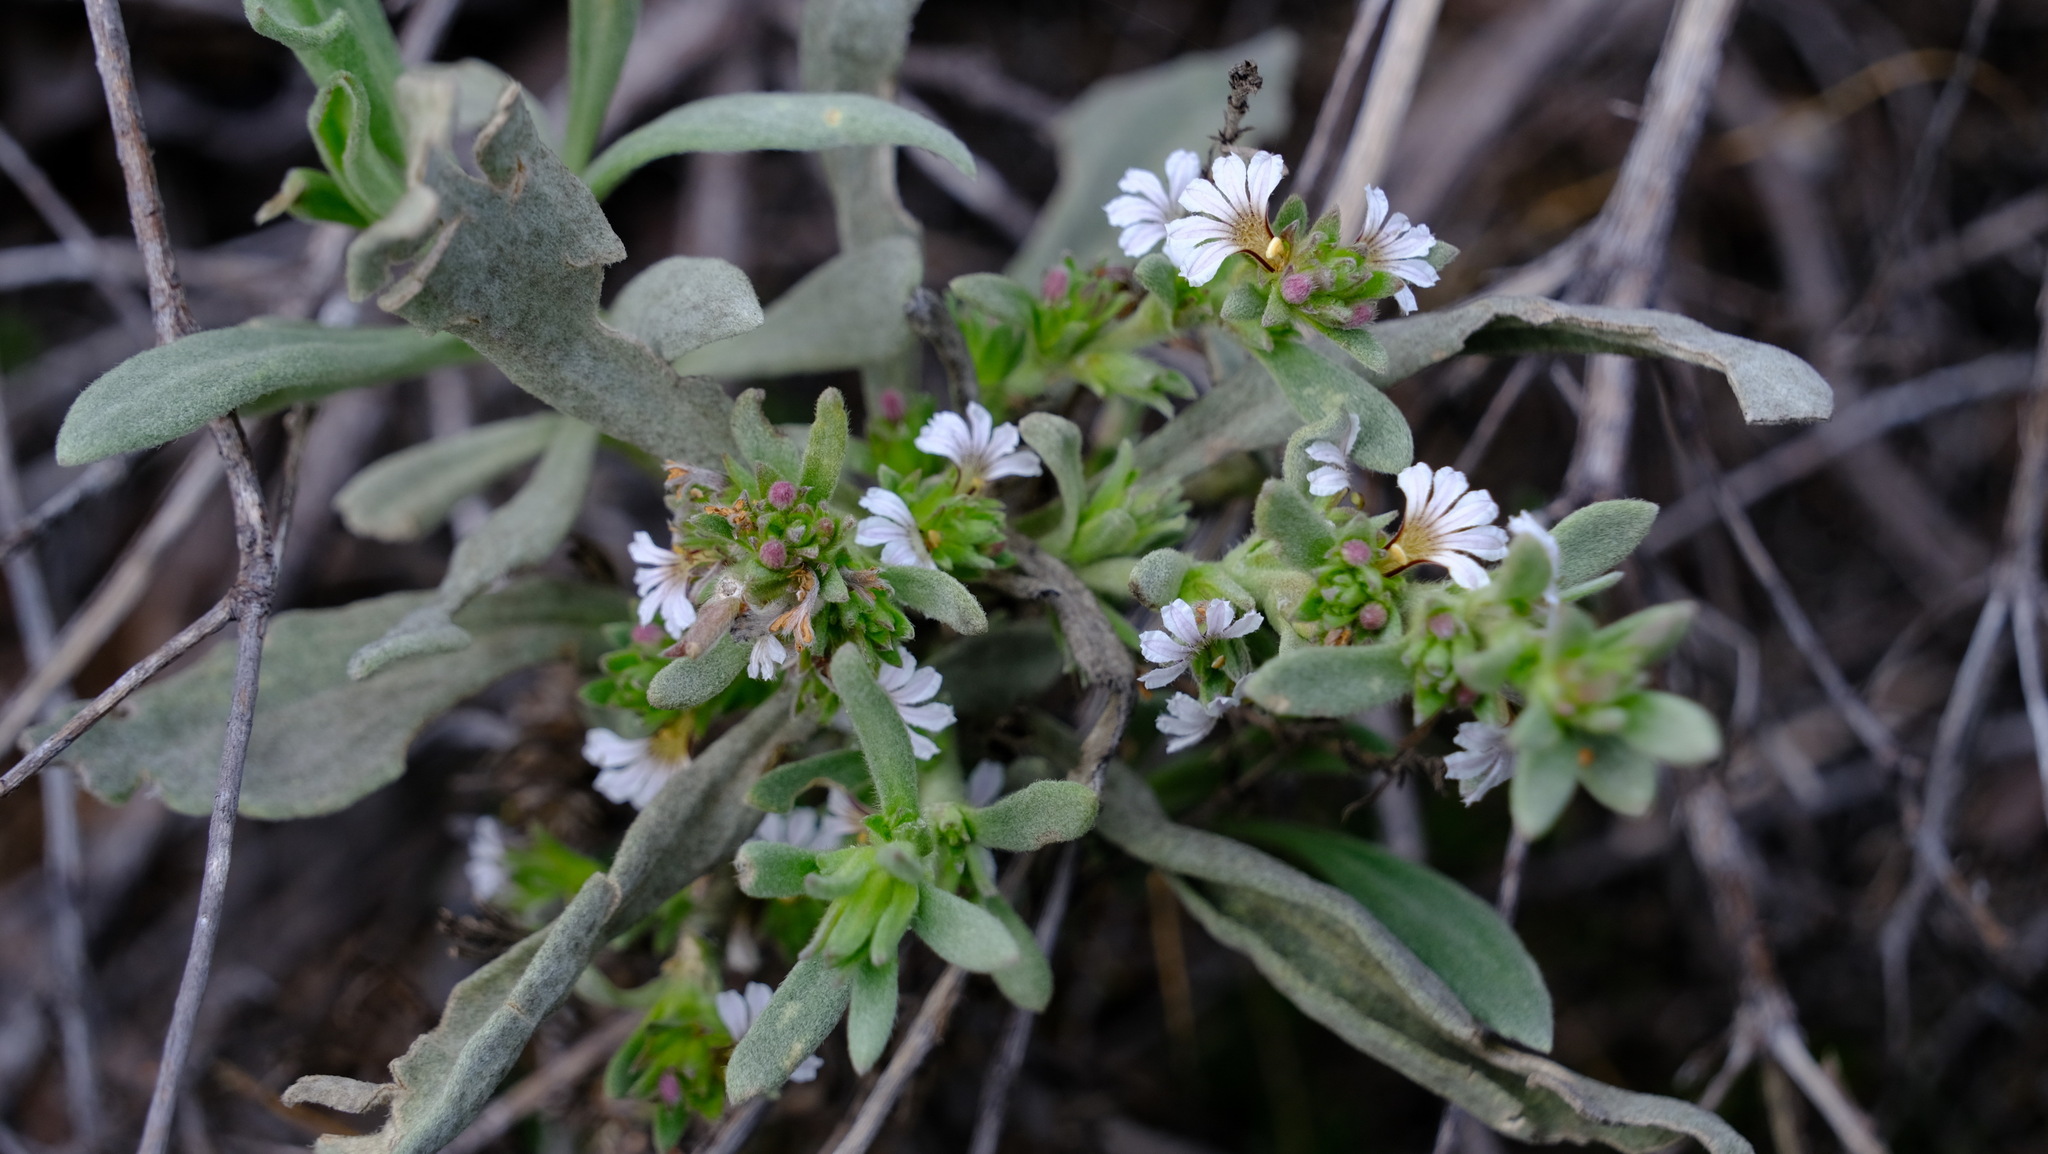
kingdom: Plantae
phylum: Tracheophyta
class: Magnoliopsida
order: Asterales
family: Goodeniaceae
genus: Scaevola
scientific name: Scaevola canescens
